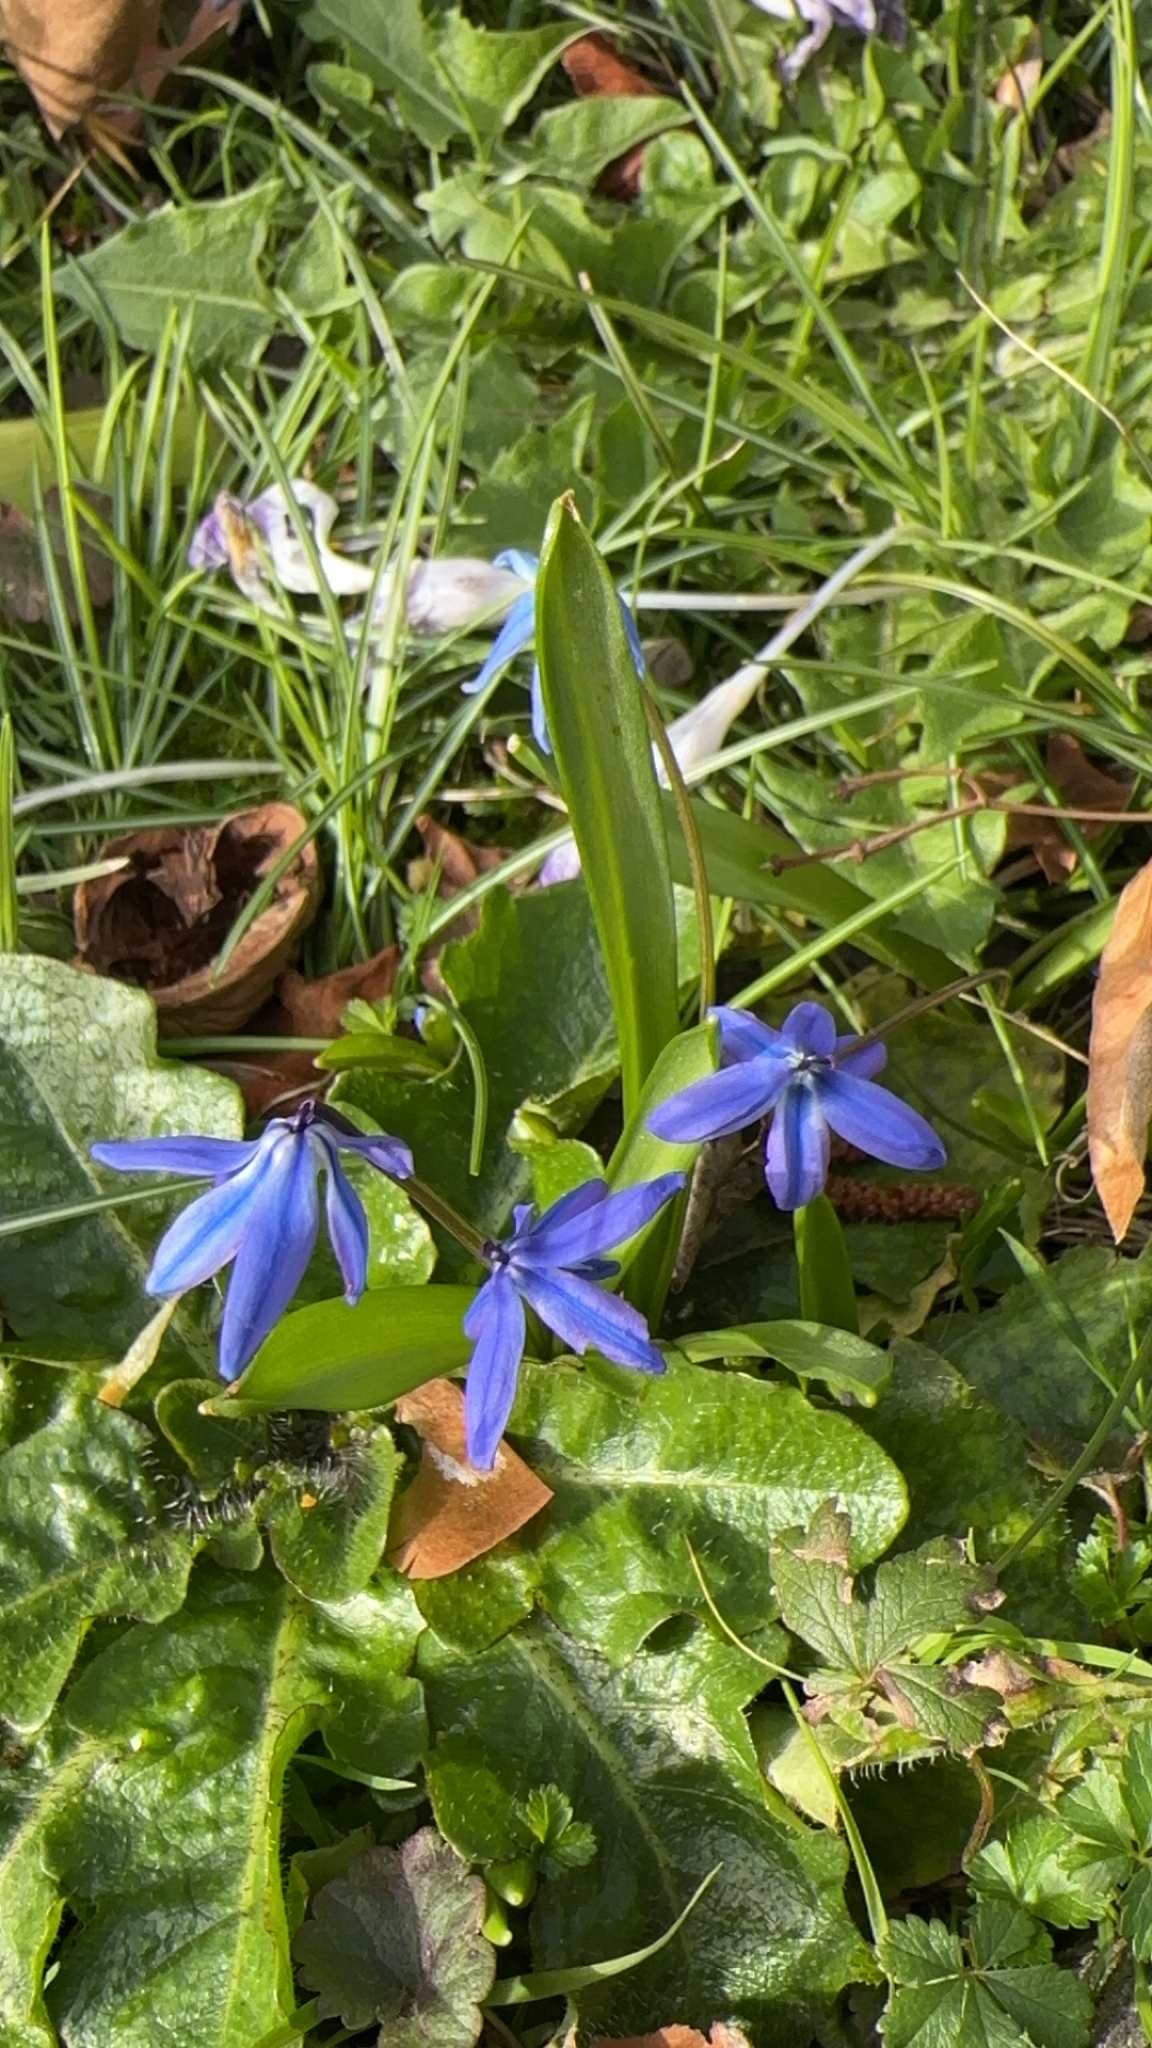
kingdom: Plantae
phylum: Tracheophyta
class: Liliopsida
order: Asparagales
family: Asparagaceae
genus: Scilla
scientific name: Scilla siberica
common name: Siberian squill
